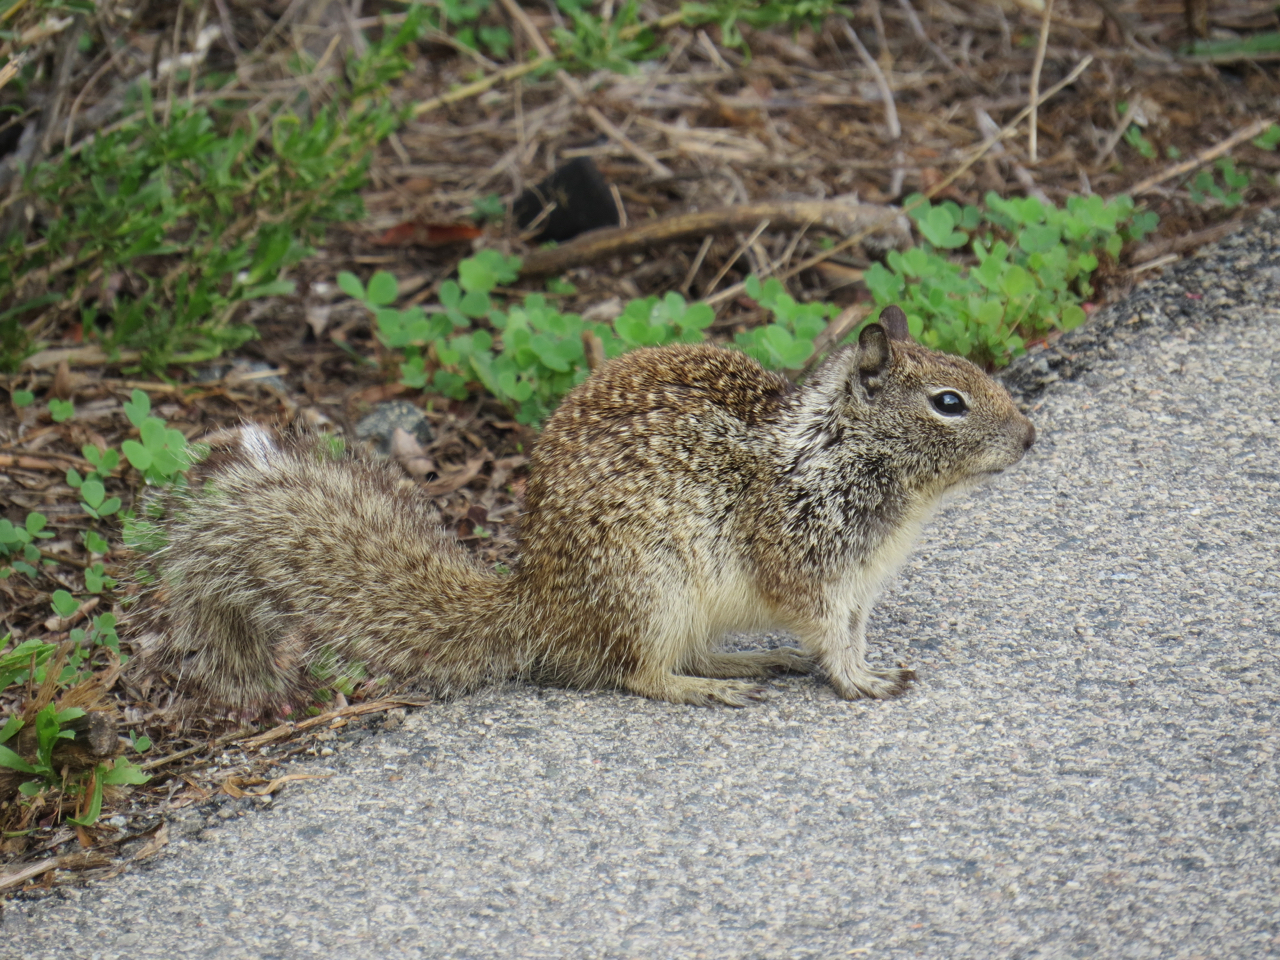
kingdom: Animalia
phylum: Chordata
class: Mammalia
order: Rodentia
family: Sciuridae
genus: Otospermophilus
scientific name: Otospermophilus beecheyi
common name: California ground squirrel
